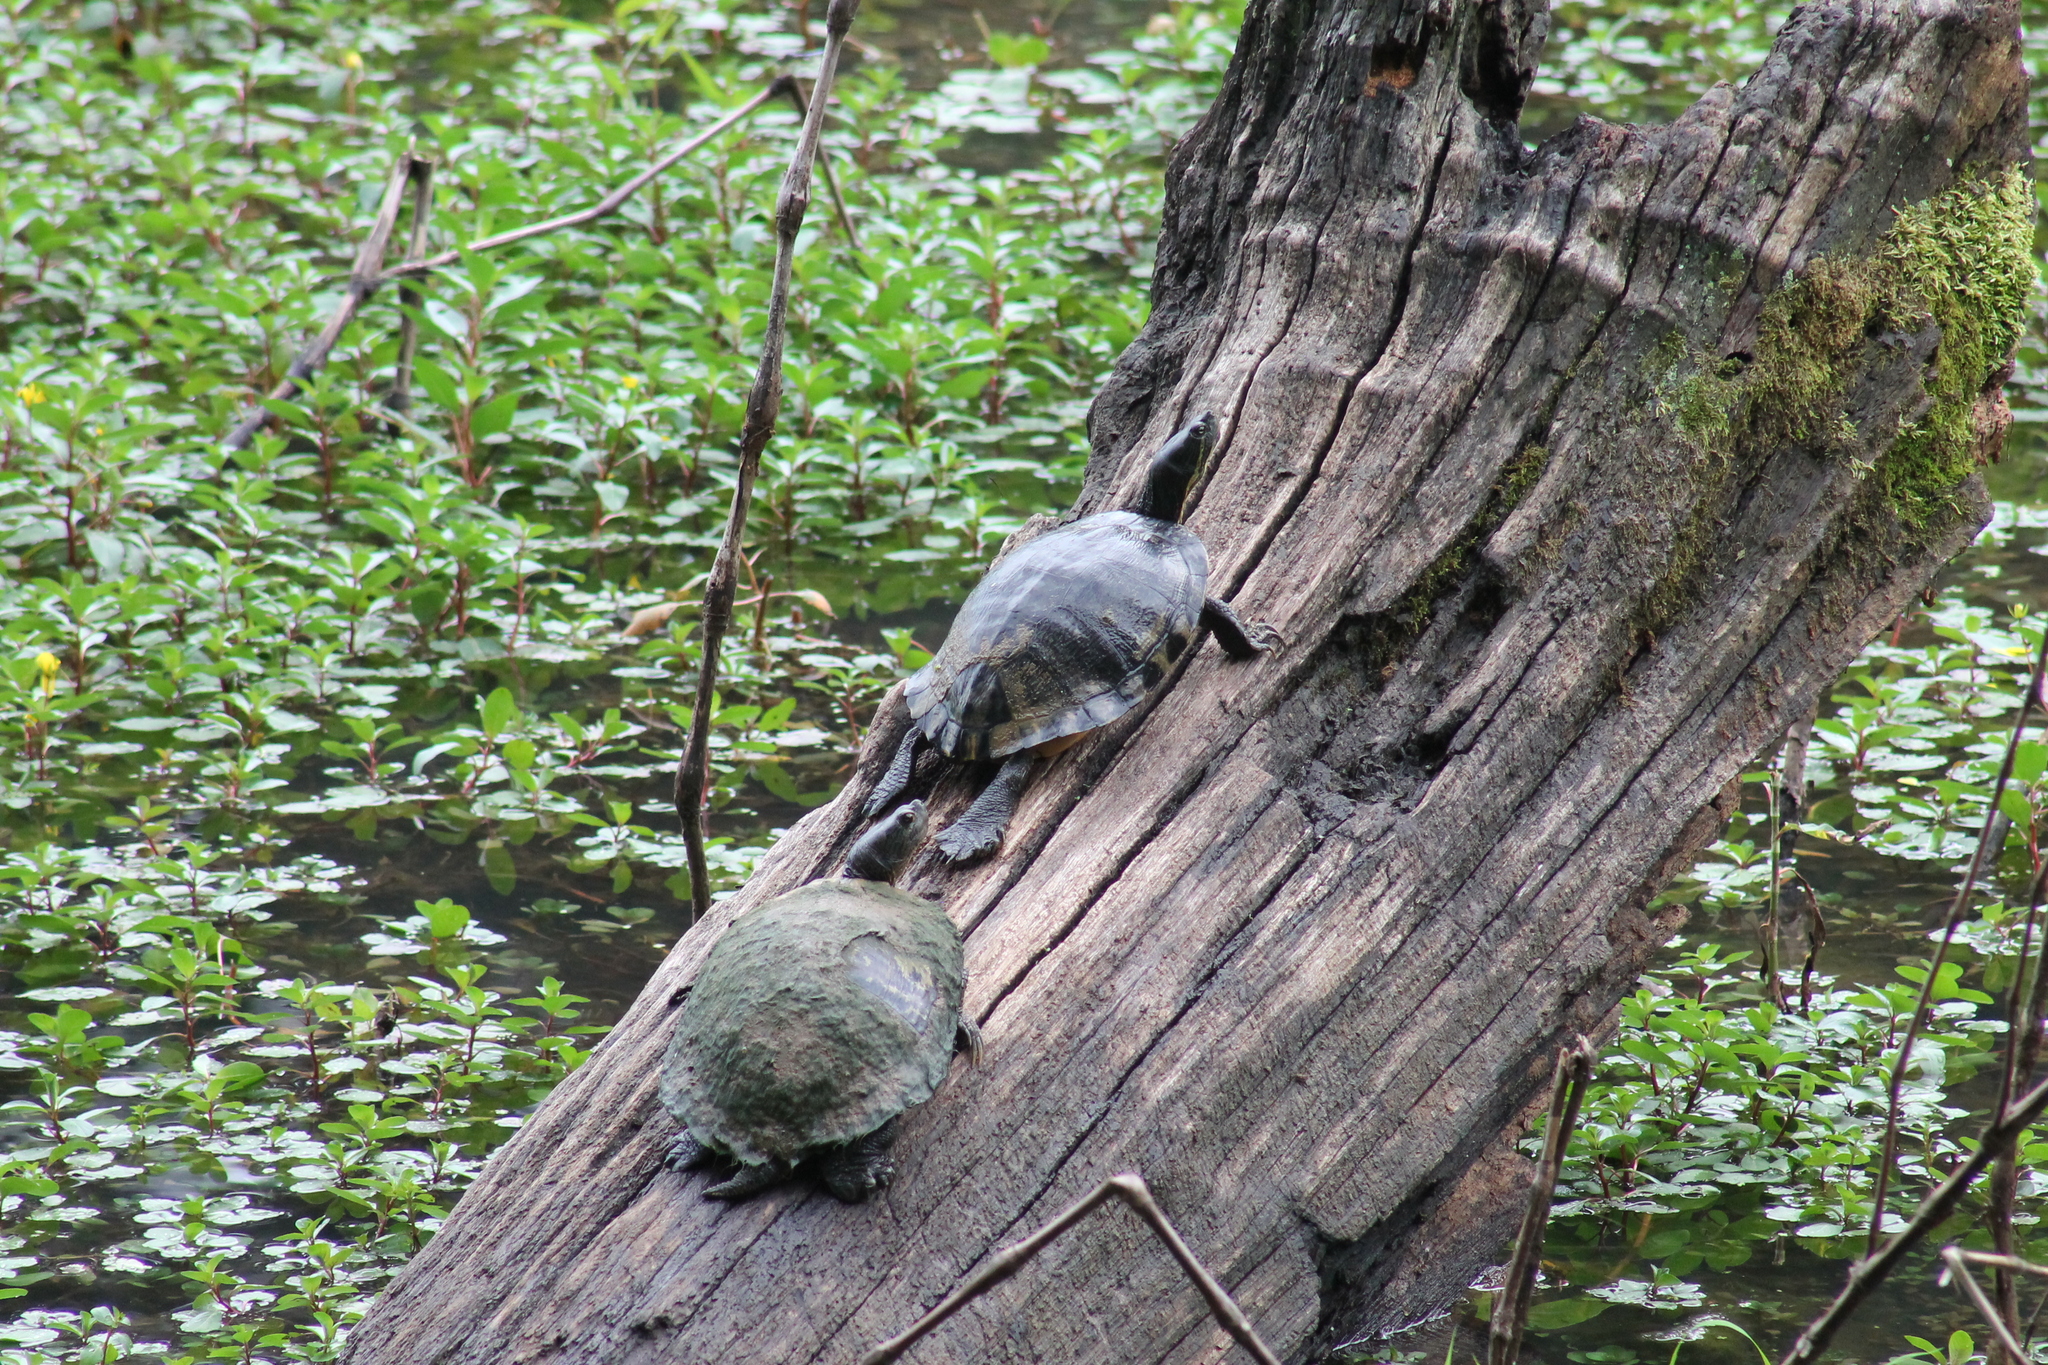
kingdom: Animalia
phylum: Chordata
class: Testudines
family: Emydidae
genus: Trachemys
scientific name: Trachemys scripta
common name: Slider
